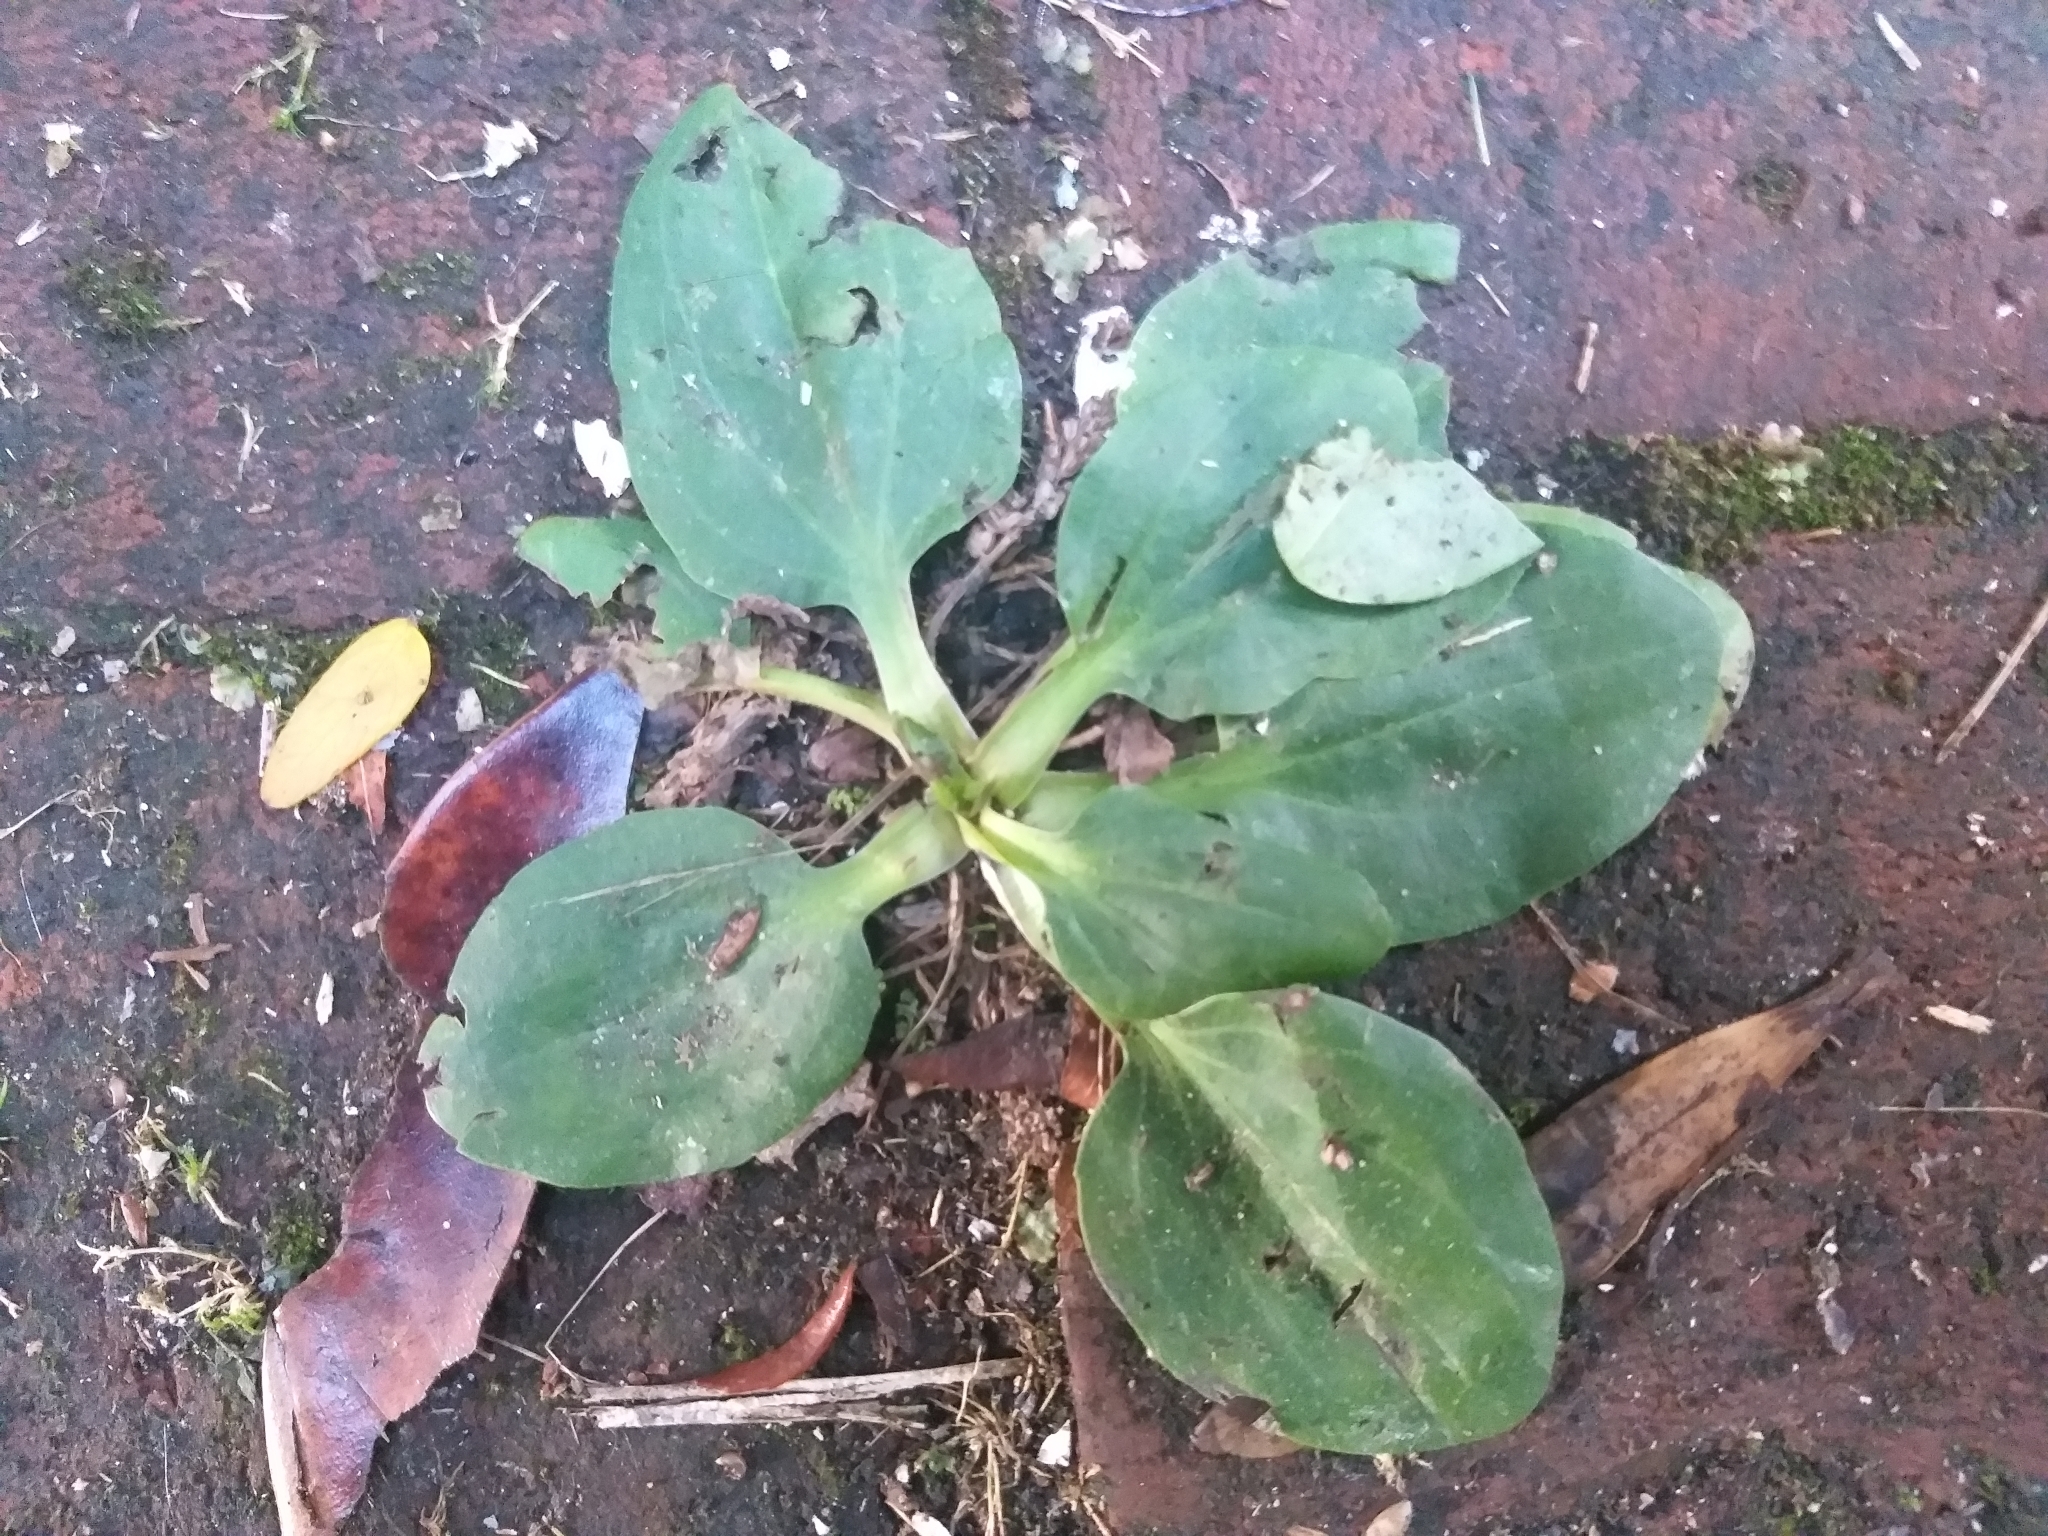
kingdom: Plantae
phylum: Tracheophyta
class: Magnoliopsida
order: Lamiales
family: Plantaginaceae
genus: Plantago
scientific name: Plantago major
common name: Common plantain
